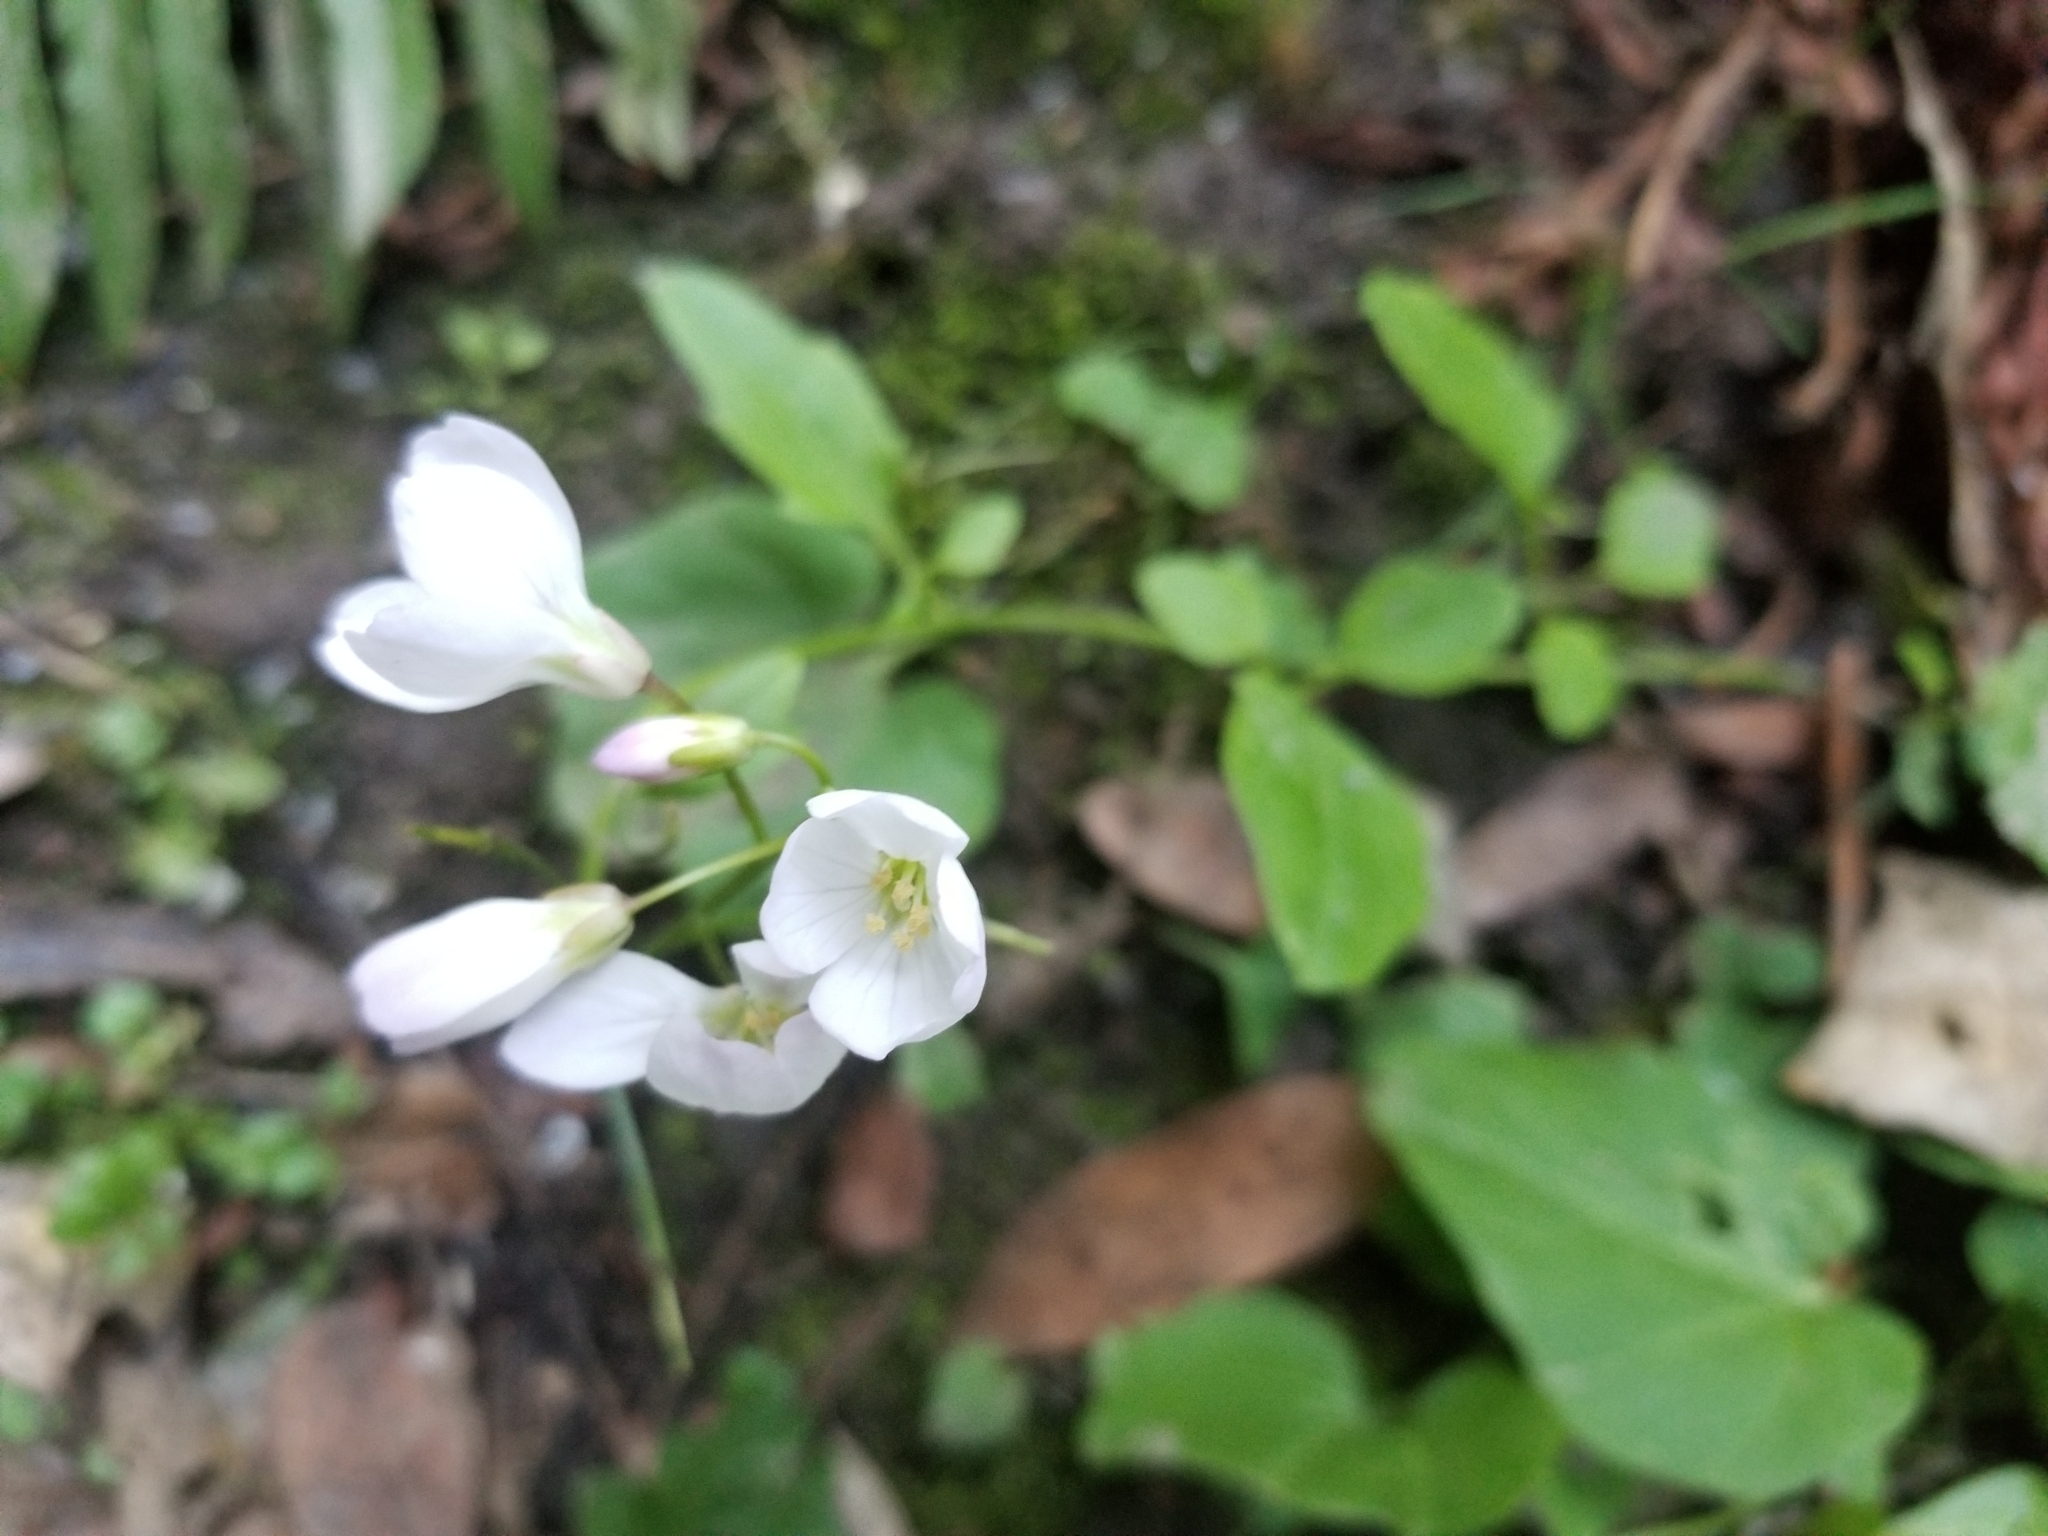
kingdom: Plantae
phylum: Tracheophyta
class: Magnoliopsida
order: Brassicales
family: Brassicaceae
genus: Cardamine
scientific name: Cardamine californica
